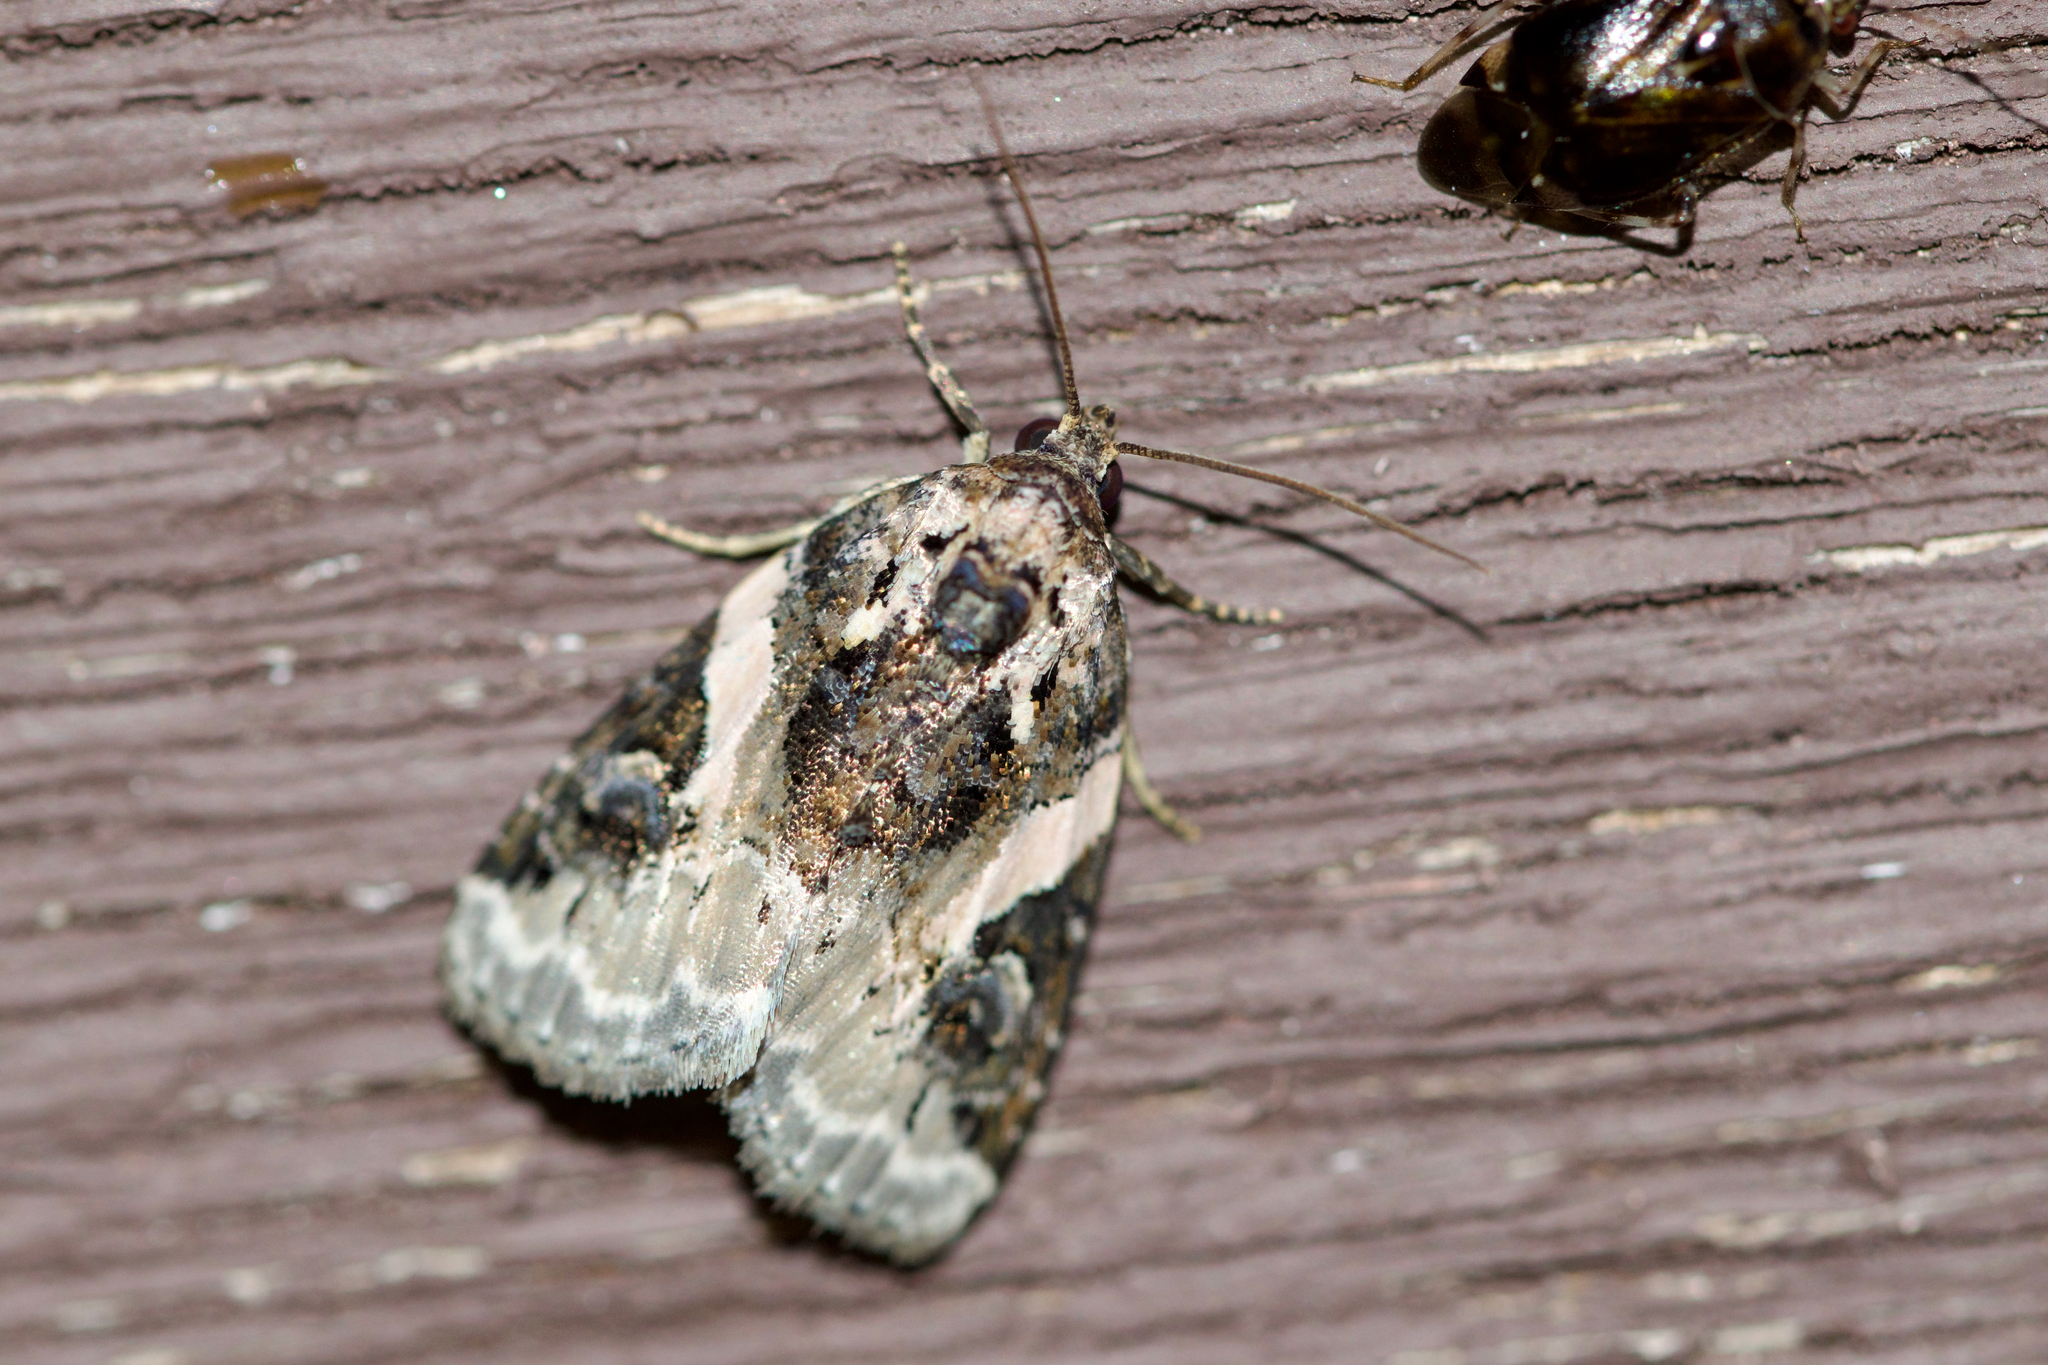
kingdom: Animalia
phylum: Arthropoda
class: Insecta
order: Lepidoptera
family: Noctuidae
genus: Pseudeustrotia
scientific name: Pseudeustrotia carneola
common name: Pink-barred lithacodia moth
